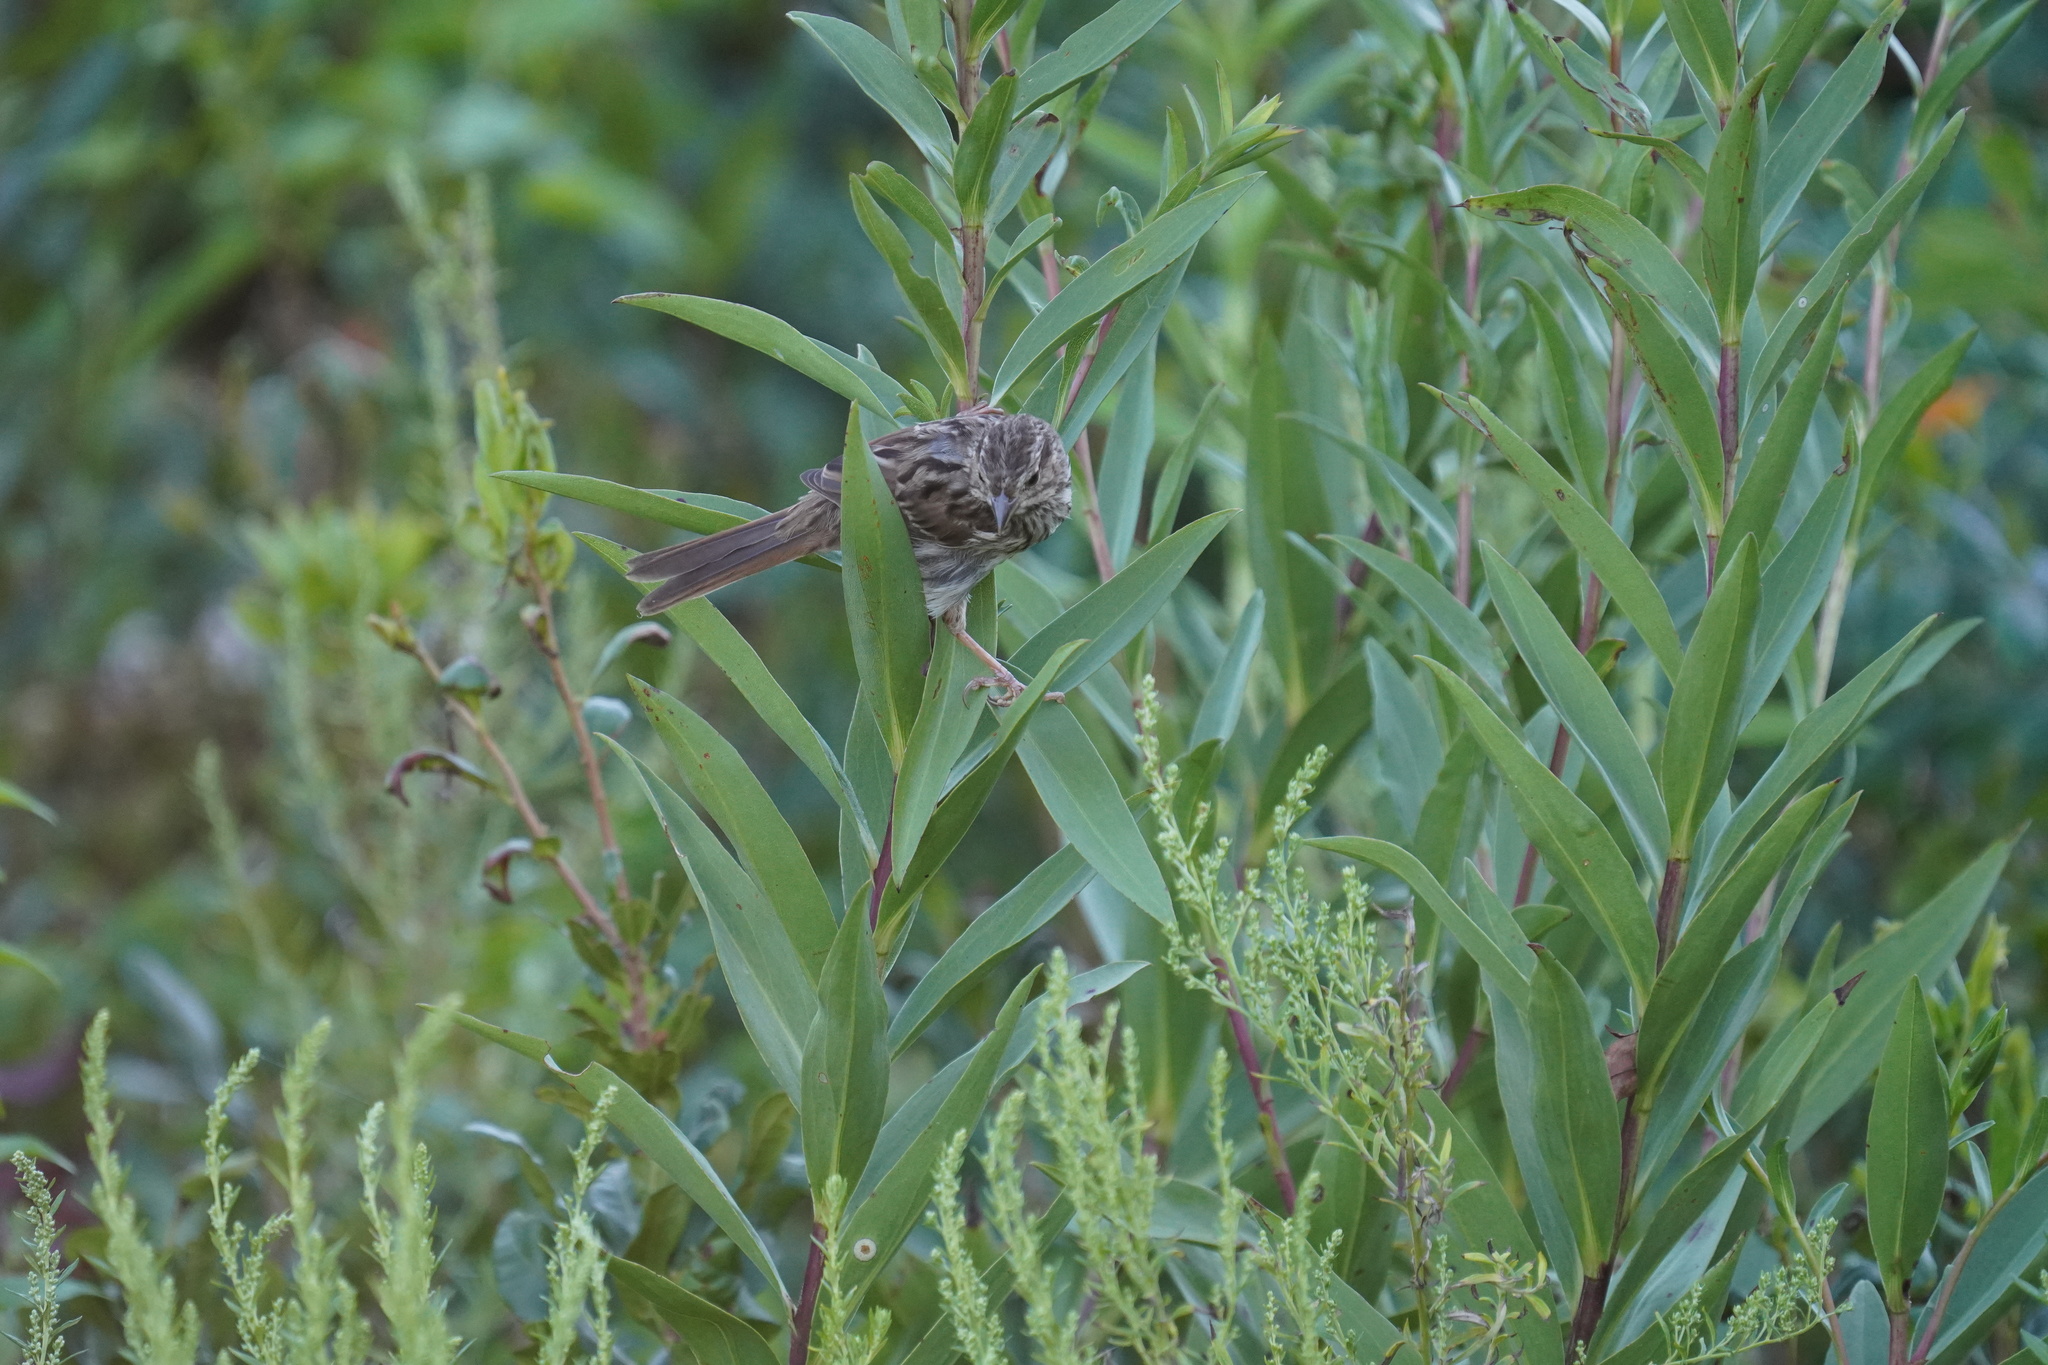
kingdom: Animalia
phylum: Chordata
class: Aves
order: Passeriformes
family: Passerellidae
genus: Melospiza
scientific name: Melospiza melodia
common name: Song sparrow
